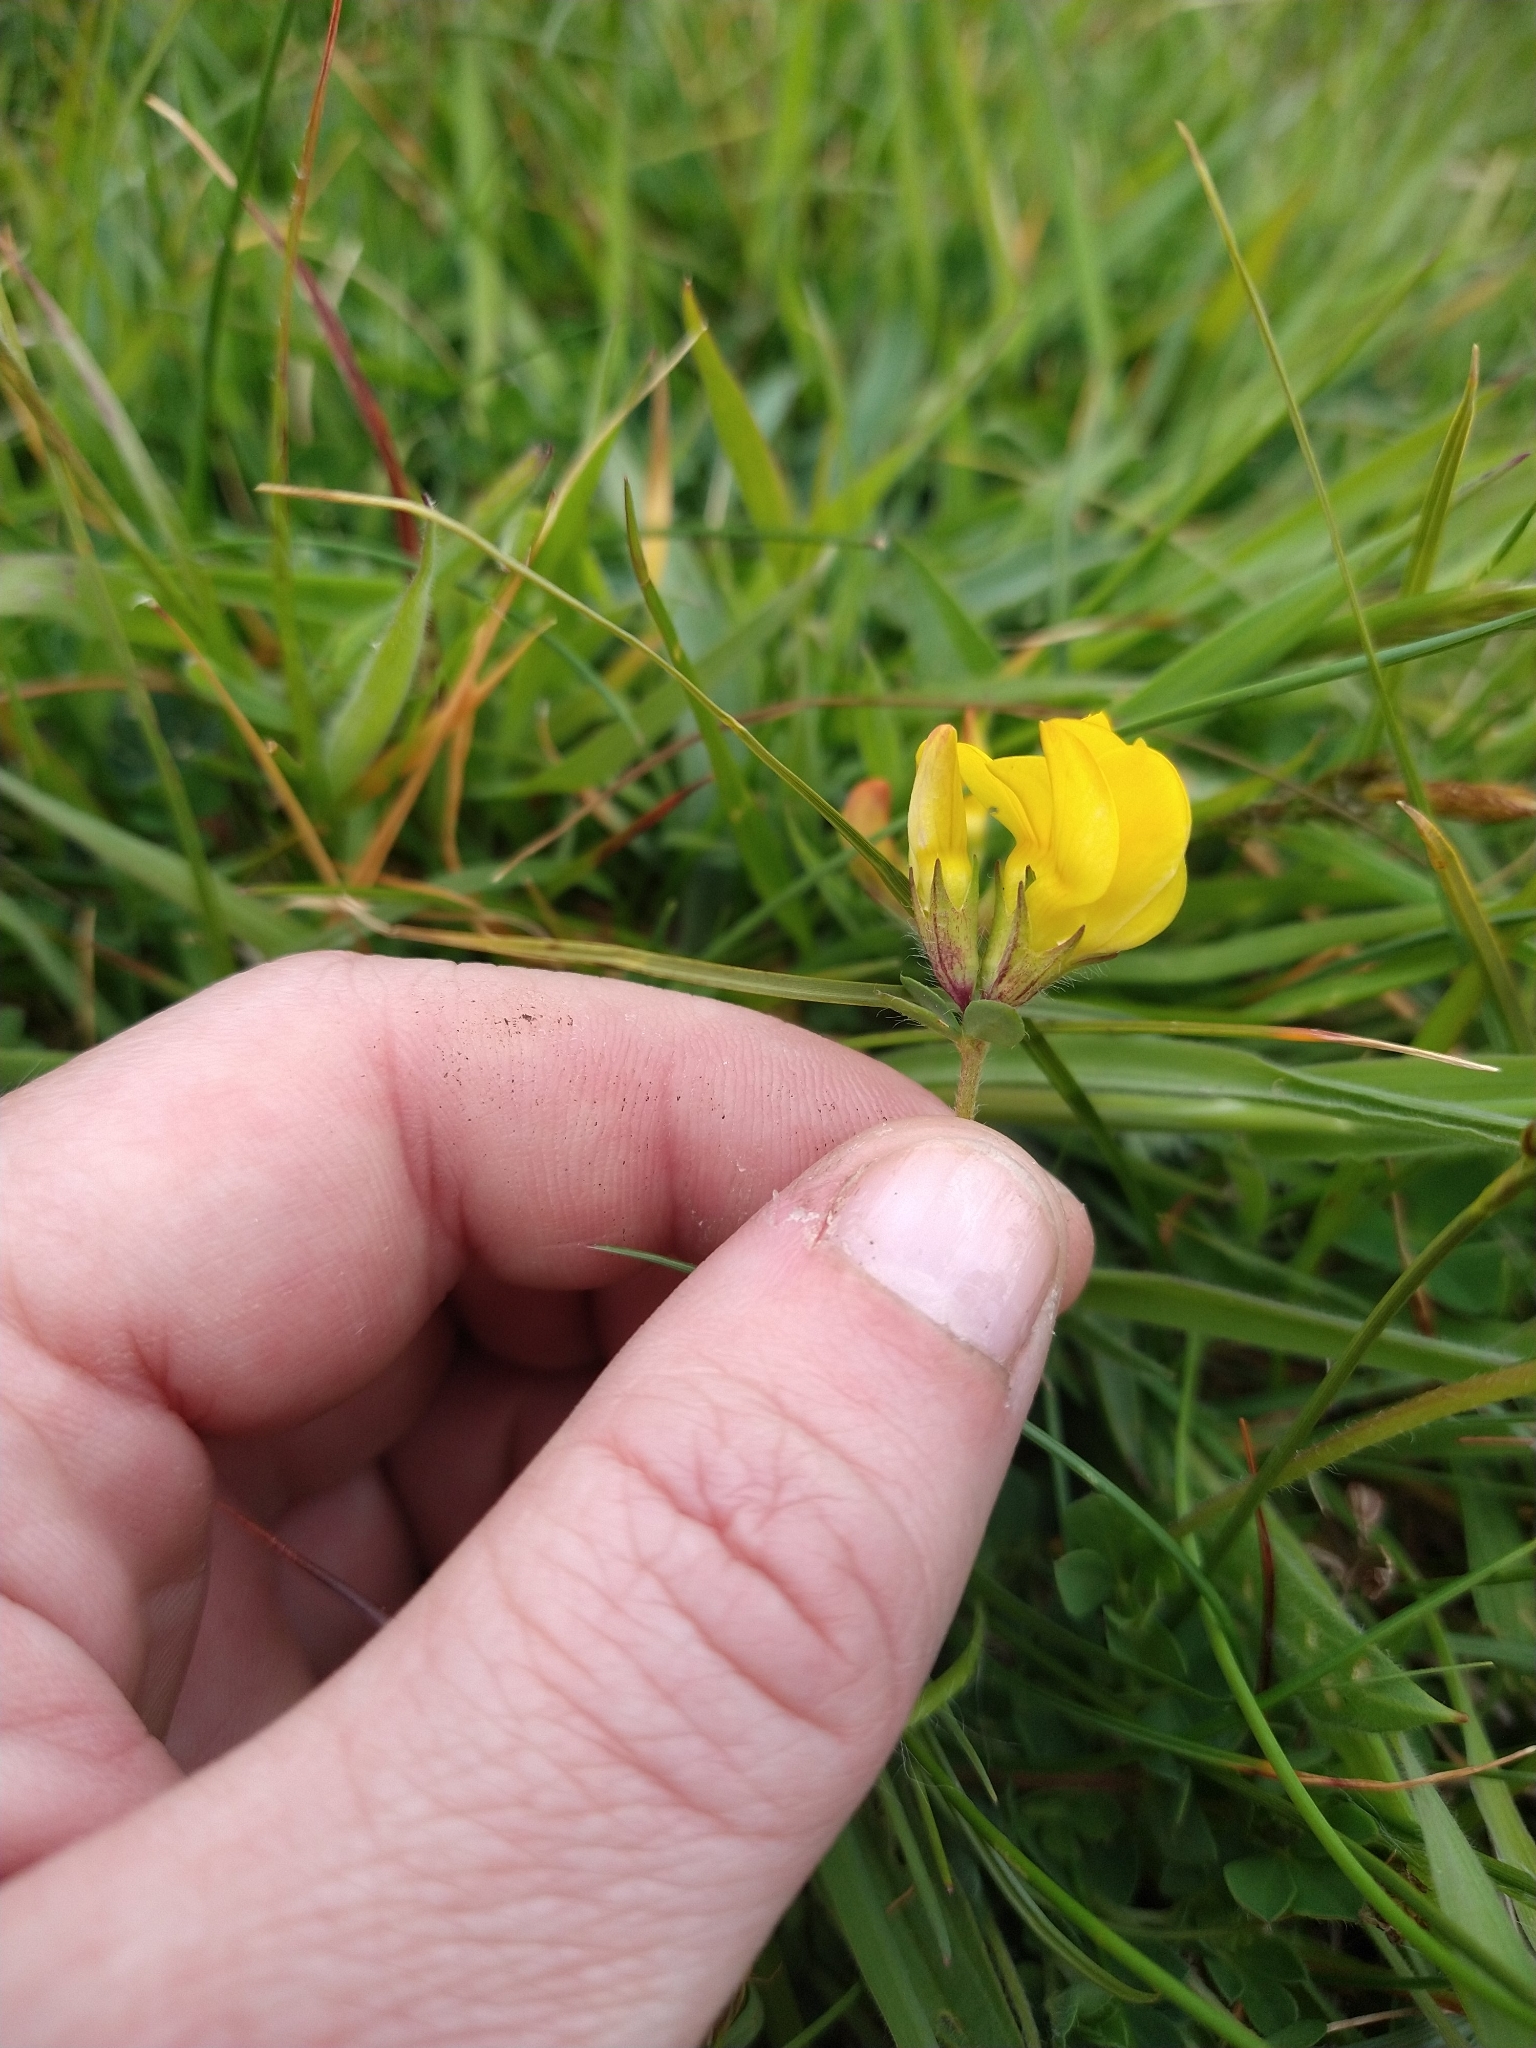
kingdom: Plantae
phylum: Tracheophyta
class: Magnoliopsida
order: Fabales
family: Fabaceae
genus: Lotus
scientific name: Lotus corniculatus
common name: Common bird's-foot-trefoil
